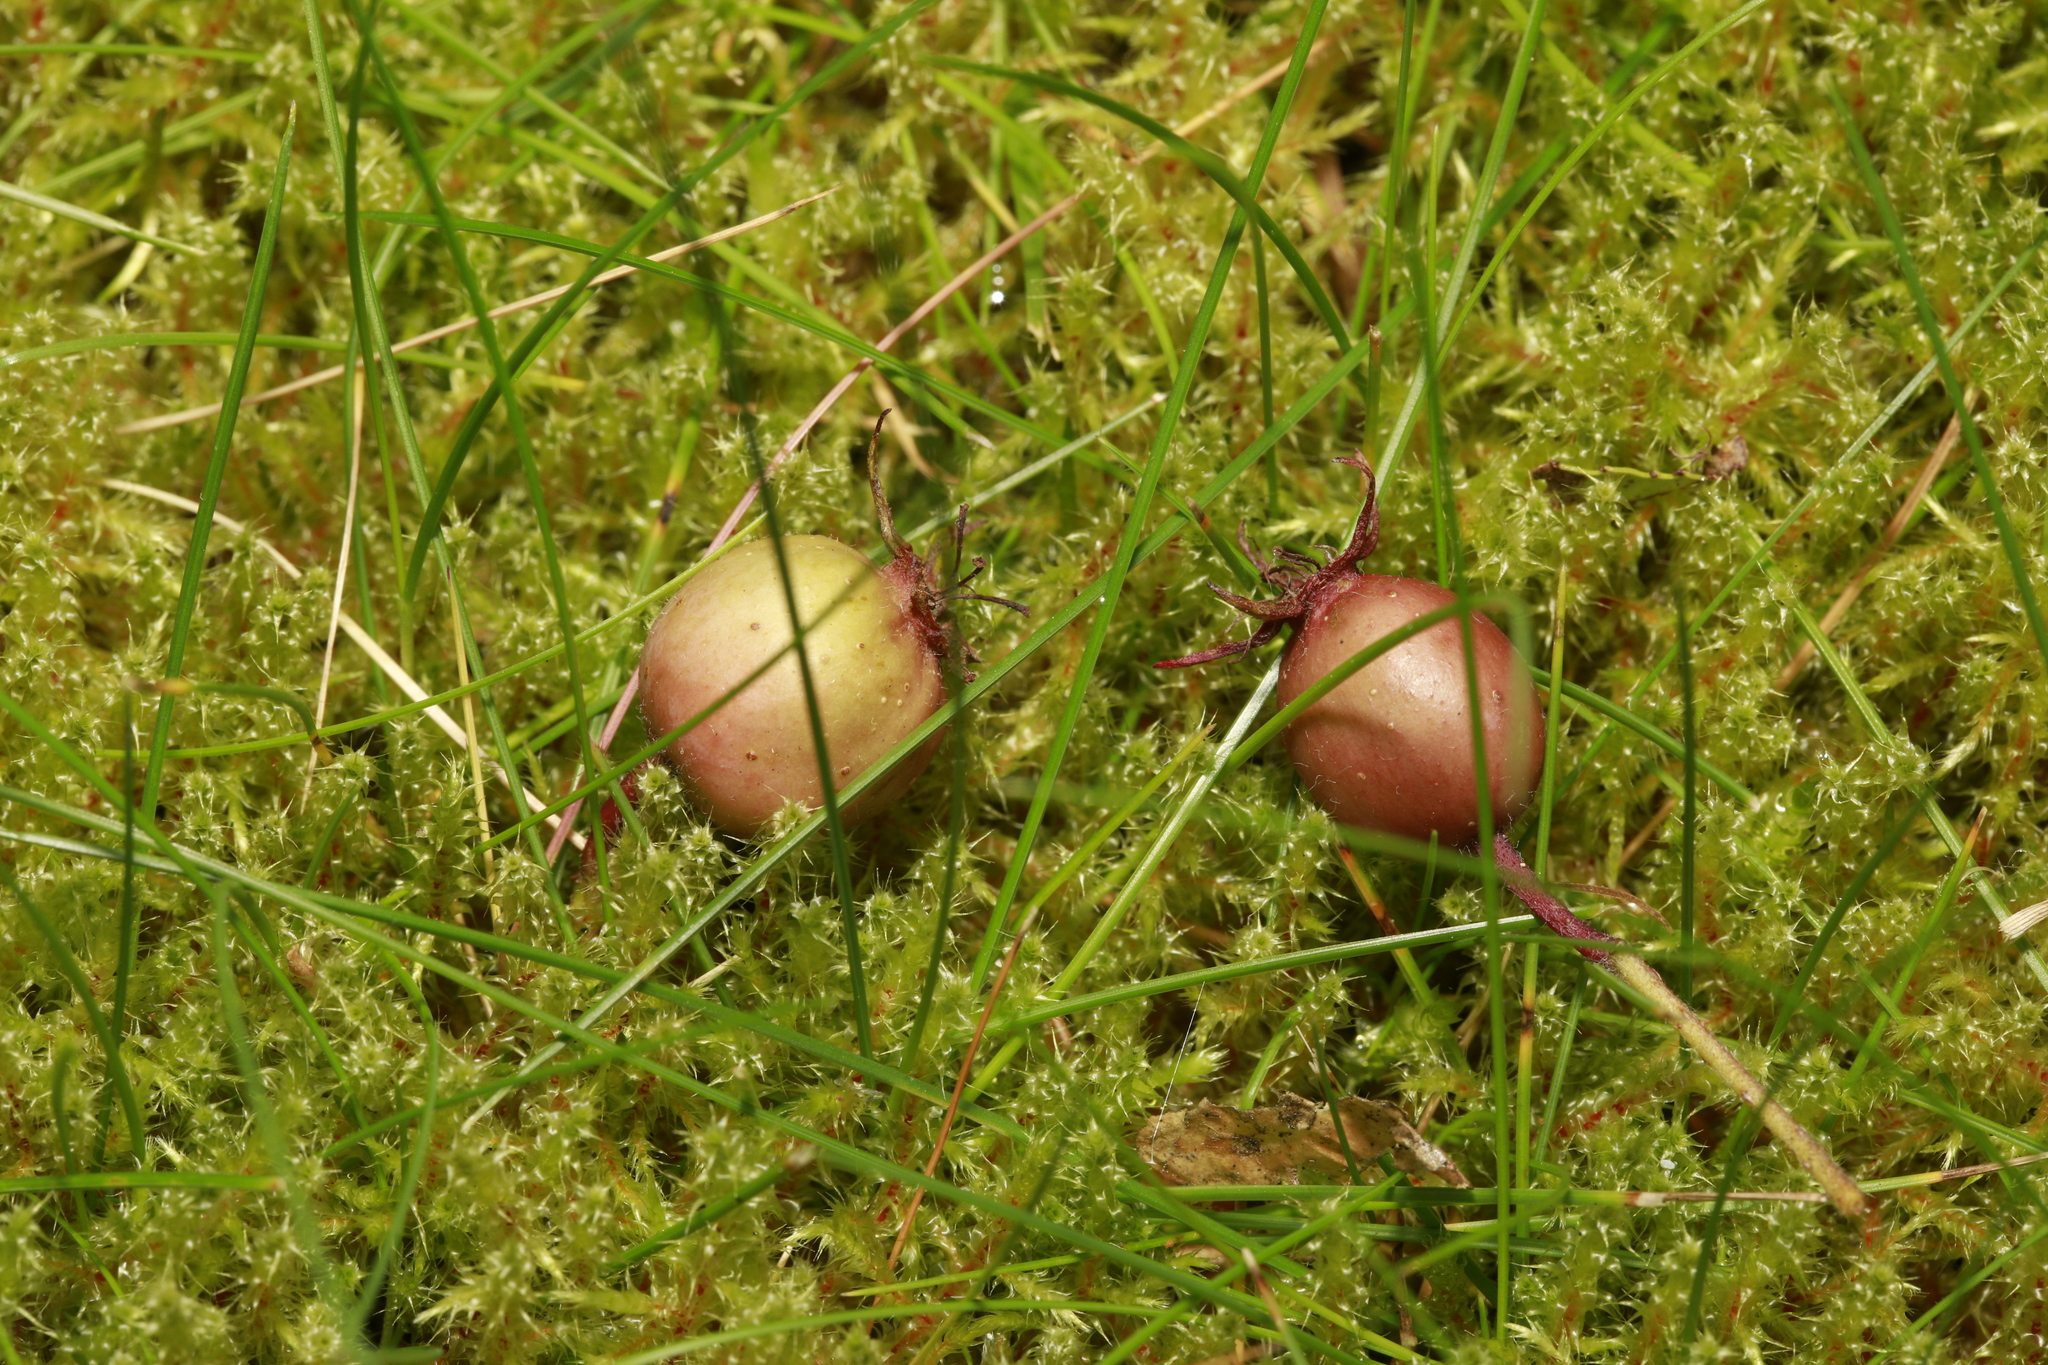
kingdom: Plantae
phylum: Bryophyta
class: Bryopsida
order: Hypnales
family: Hylocomiaceae
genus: Rhytidiadelphus
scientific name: Rhytidiadelphus squarrosus
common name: Springy turf-moss
